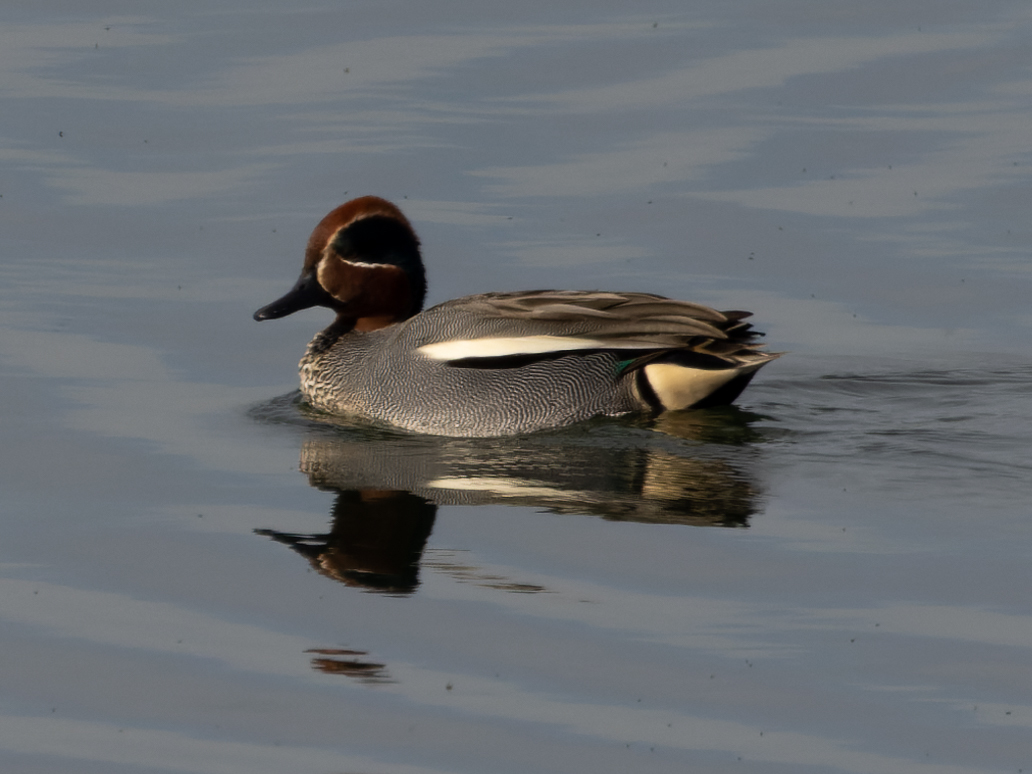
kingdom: Animalia
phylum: Chordata
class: Aves
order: Anseriformes
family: Anatidae
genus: Anas
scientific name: Anas crecca
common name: Eurasian teal
